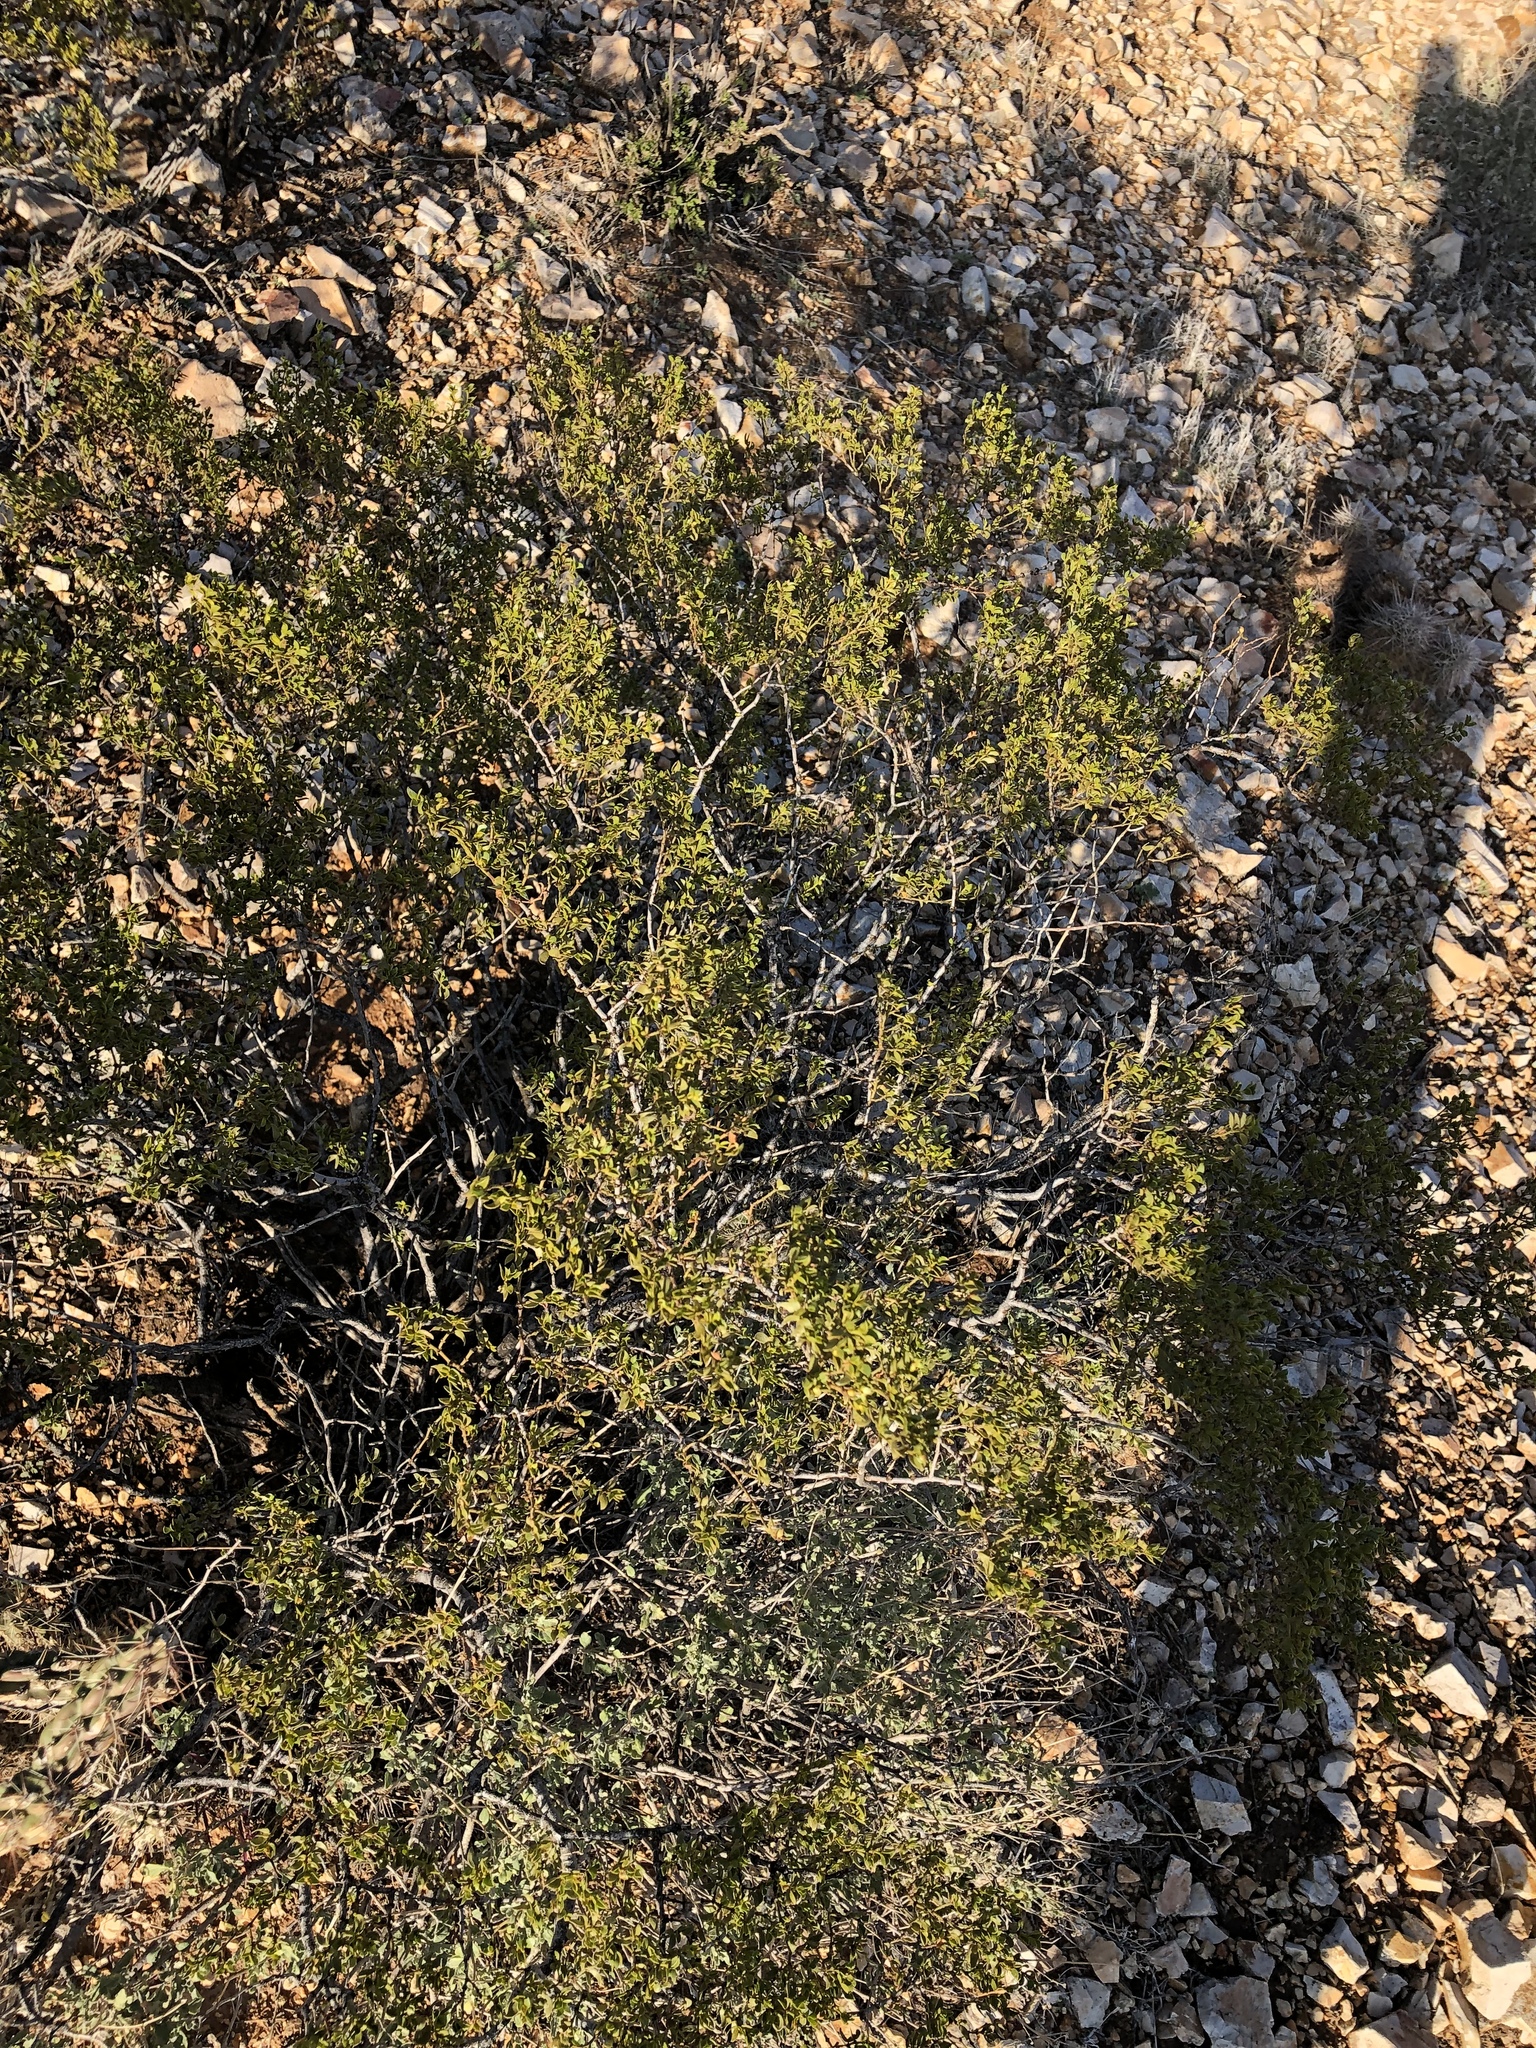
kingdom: Plantae
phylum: Tracheophyta
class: Magnoliopsida
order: Zygophyllales
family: Zygophyllaceae
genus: Larrea
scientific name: Larrea tridentata
